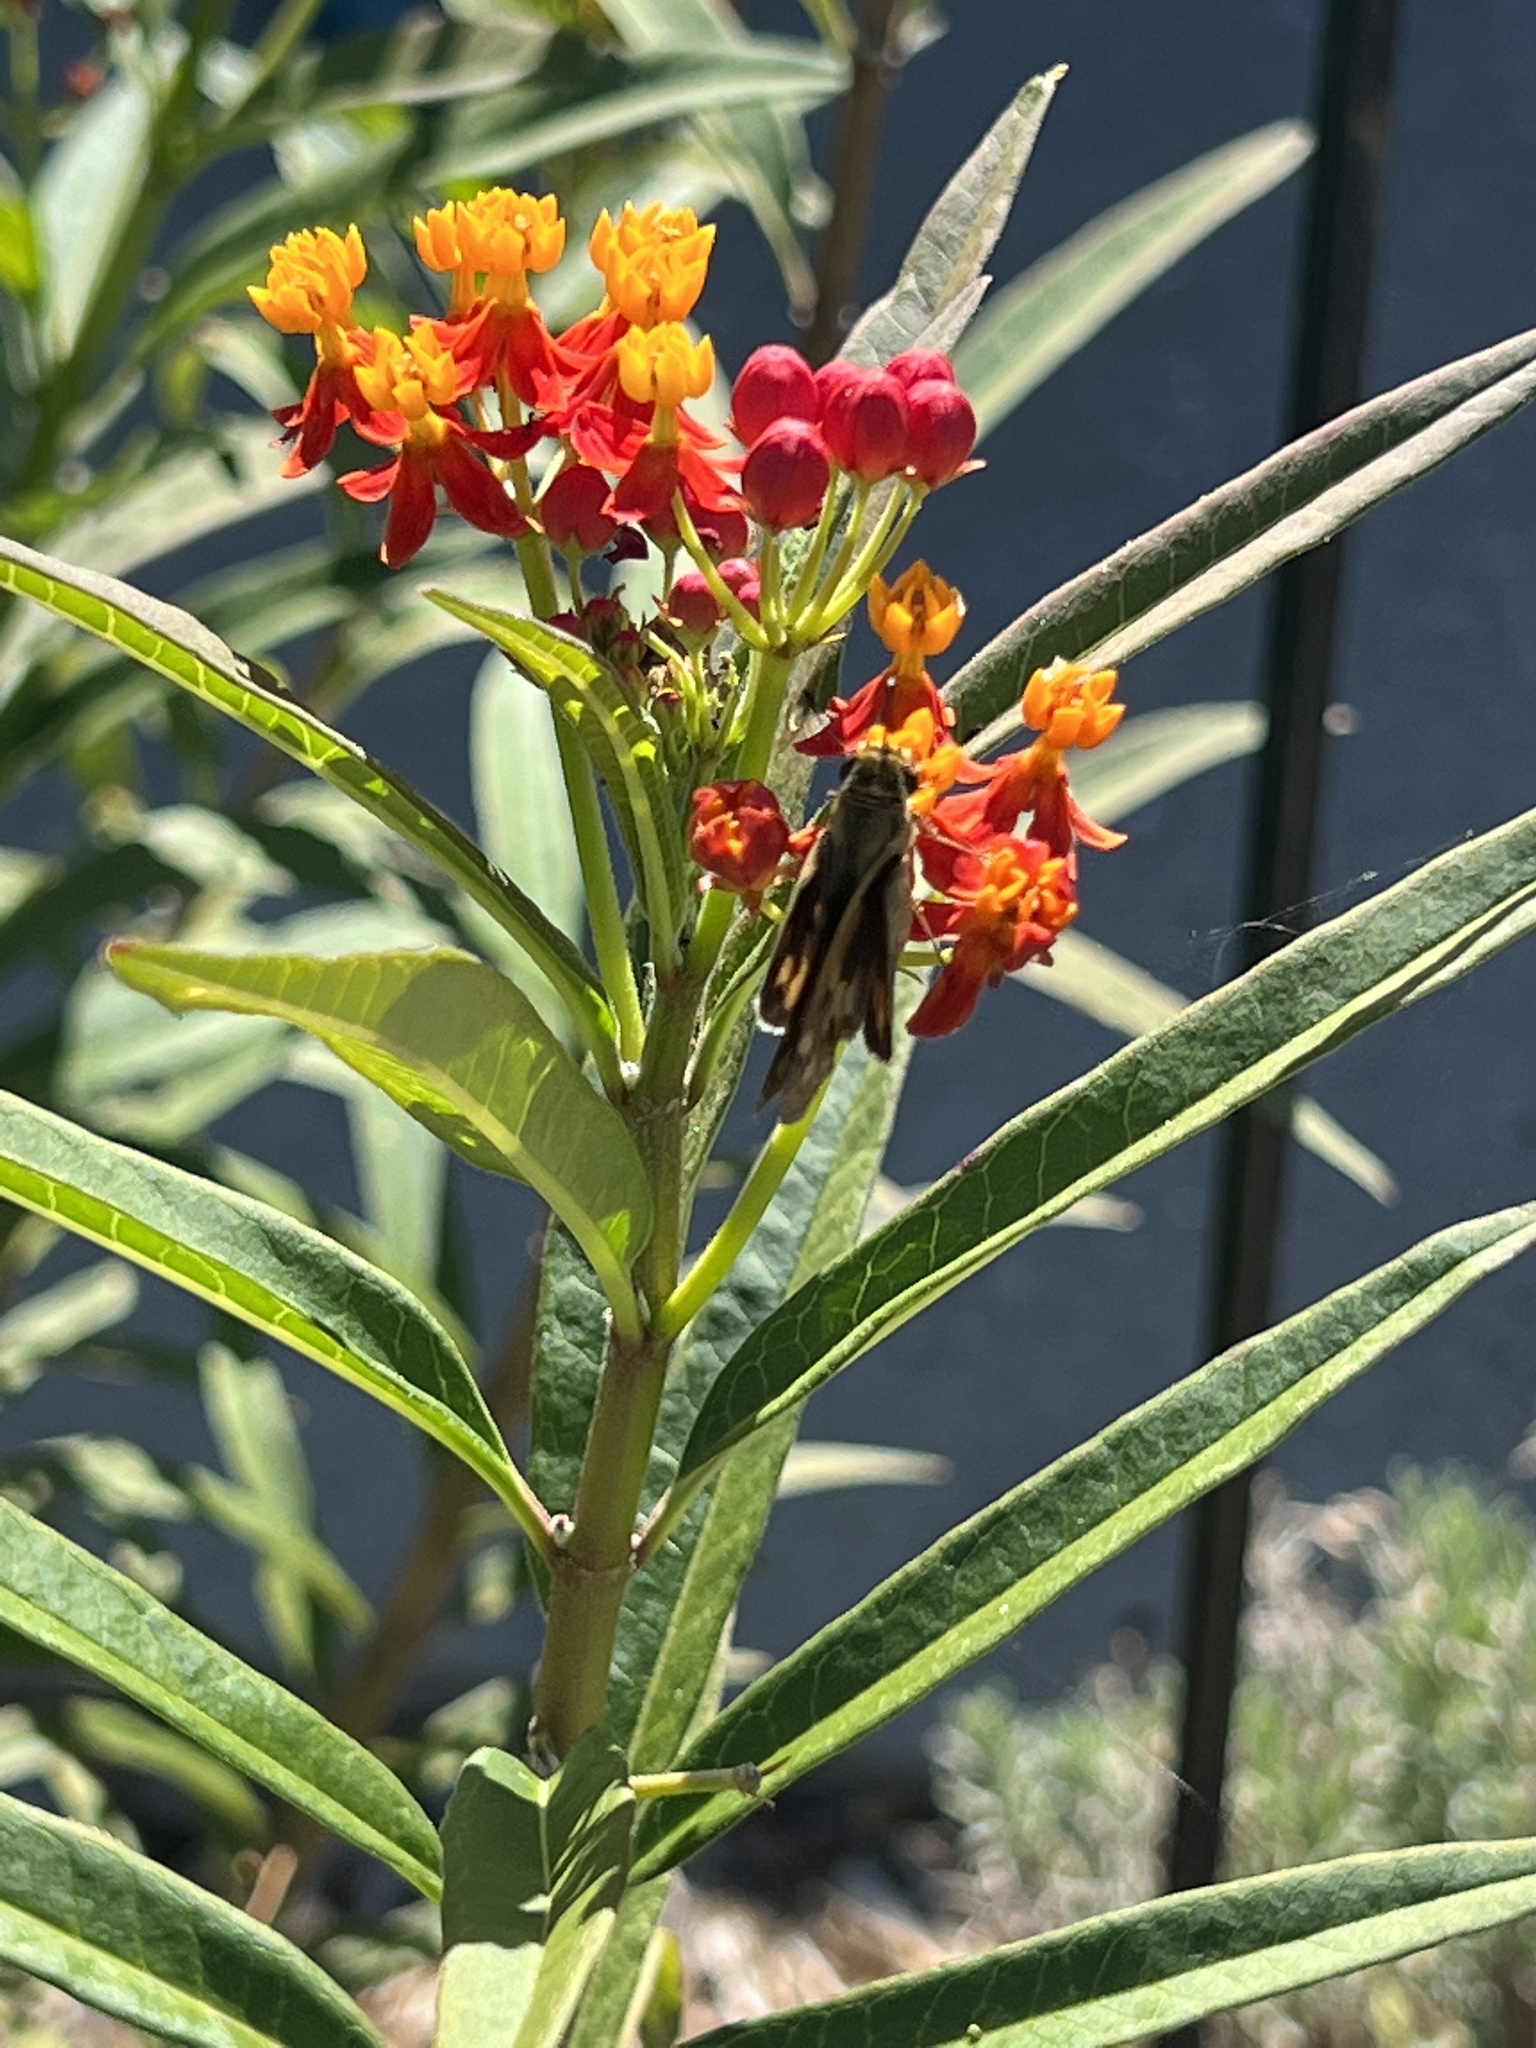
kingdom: Animalia
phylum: Arthropoda
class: Insecta
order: Lepidoptera
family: Hesperiidae
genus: Hylephila
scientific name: Hylephila phyleus
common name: Fiery skipper
